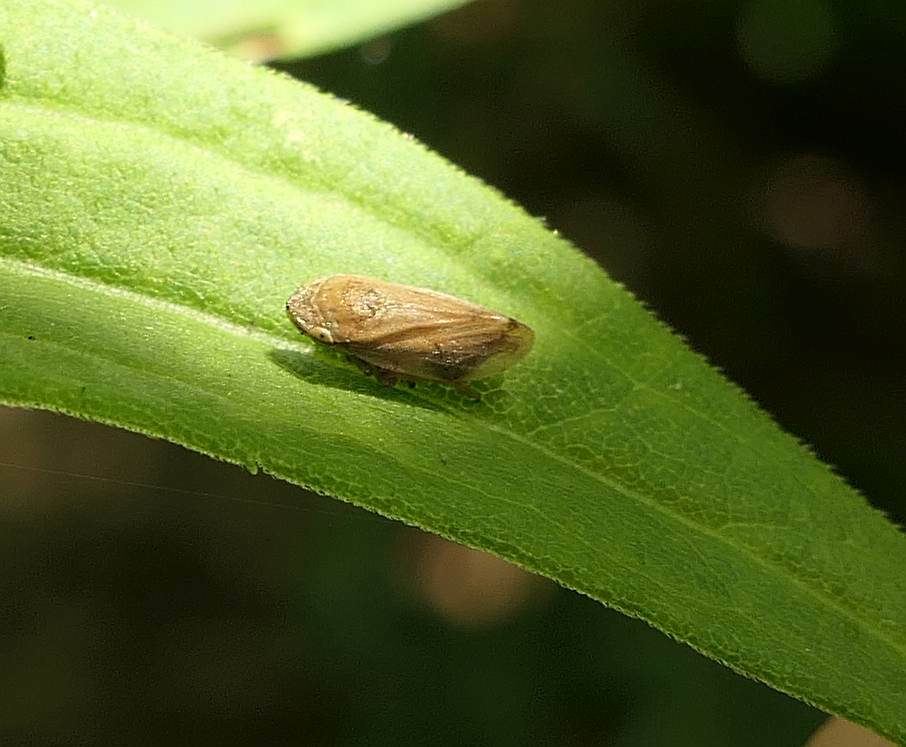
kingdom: Animalia
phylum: Arthropoda
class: Insecta
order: Hemiptera
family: Aphrophoridae
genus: Philaenus
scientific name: Philaenus spumarius
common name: Meadow spittlebug
